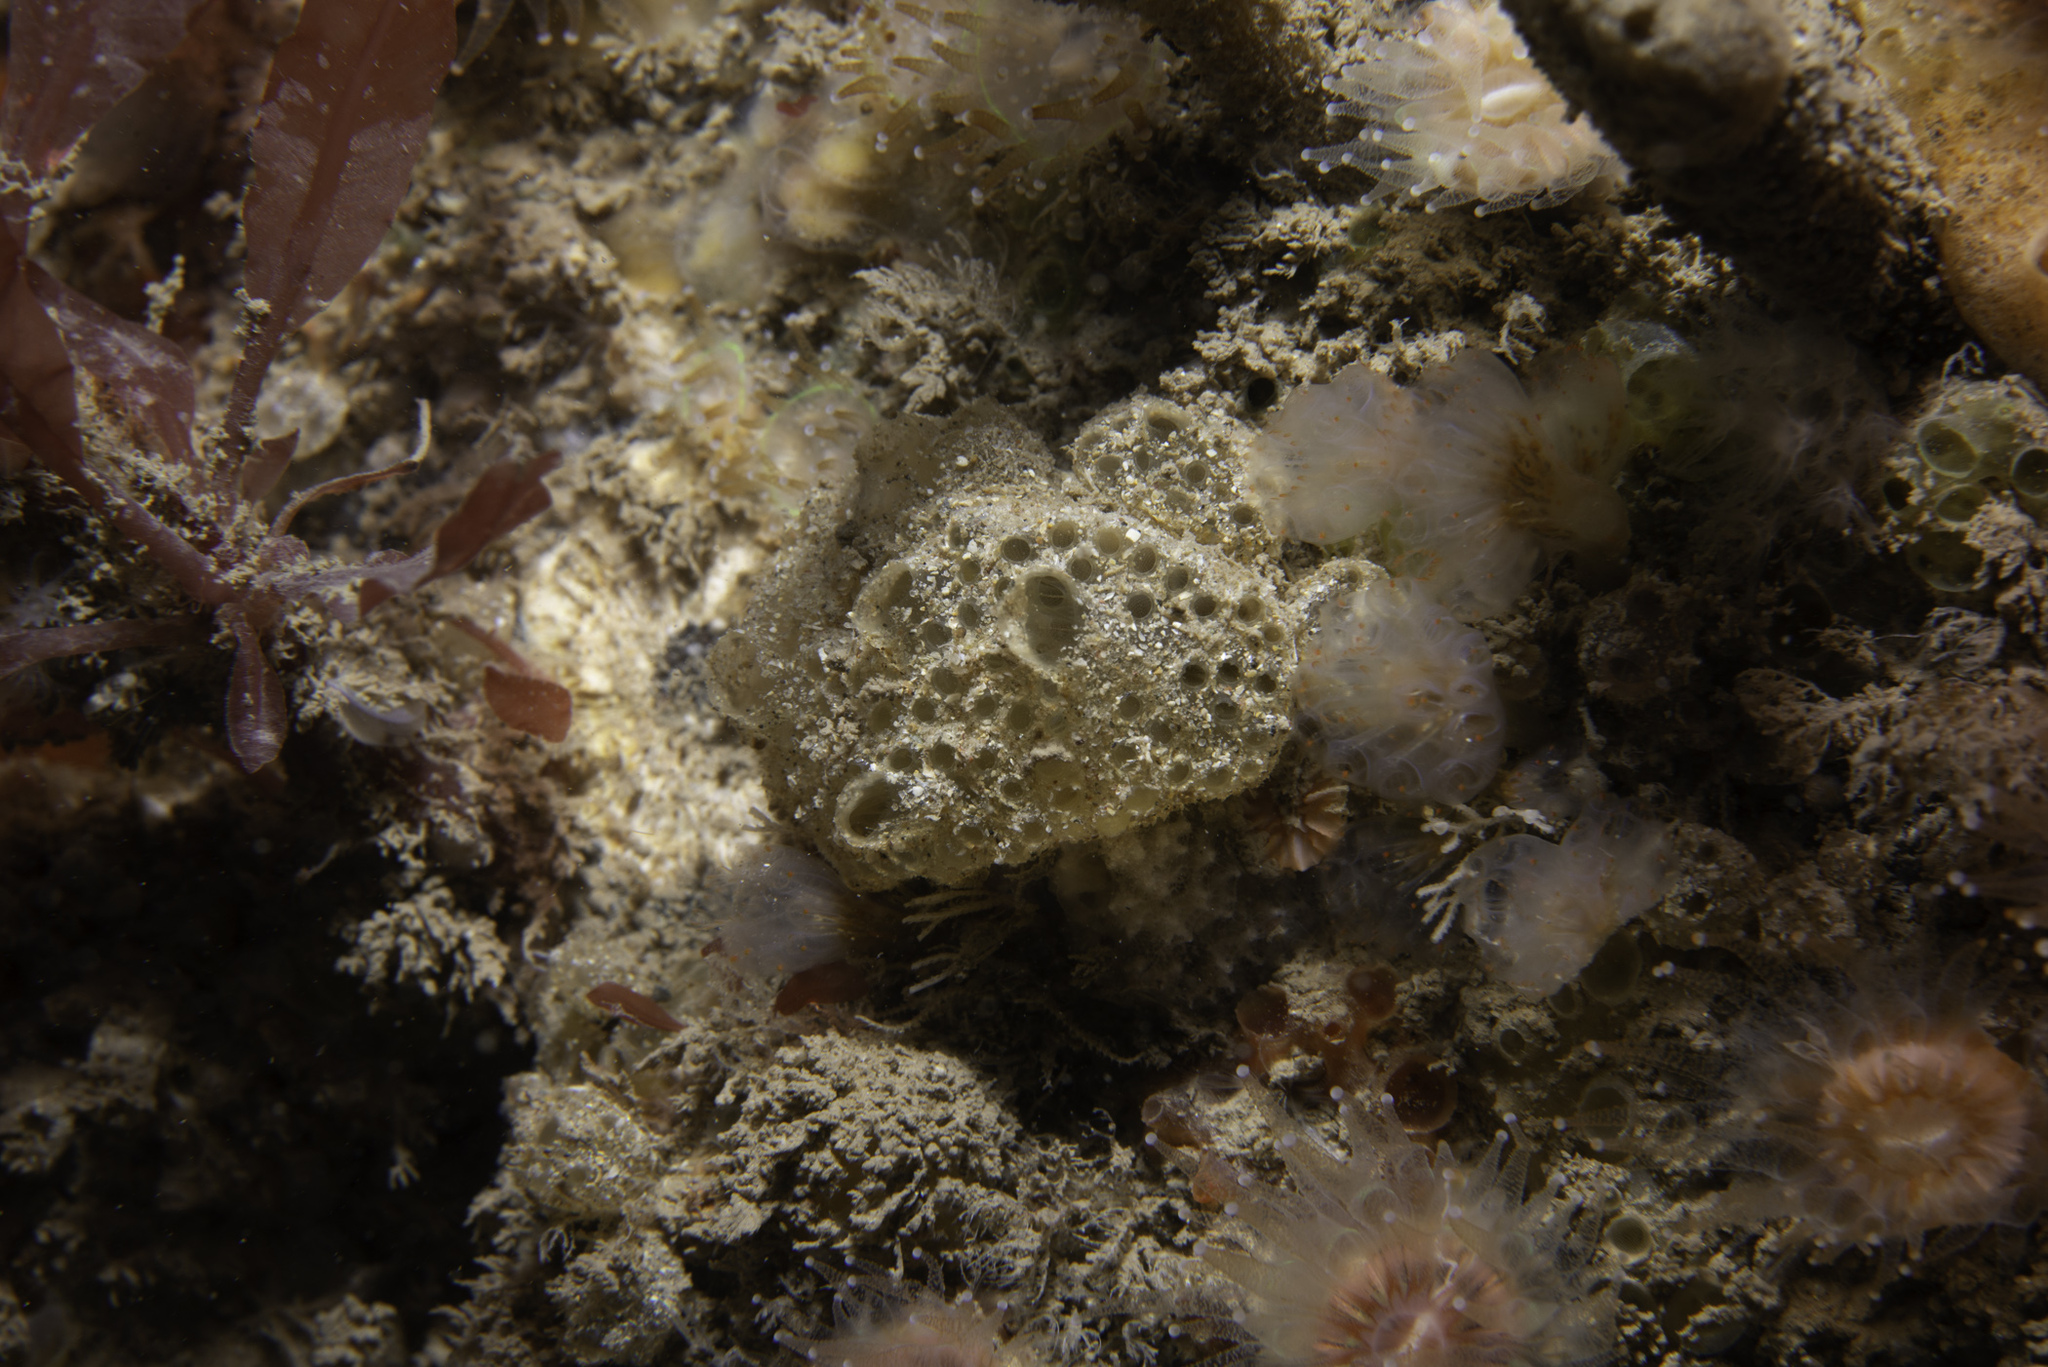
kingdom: Animalia
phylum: Chordata
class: Ascidiacea
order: Aplousobranchia
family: Polyclinidae
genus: Polyclinum
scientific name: Polyclinum aurantium
